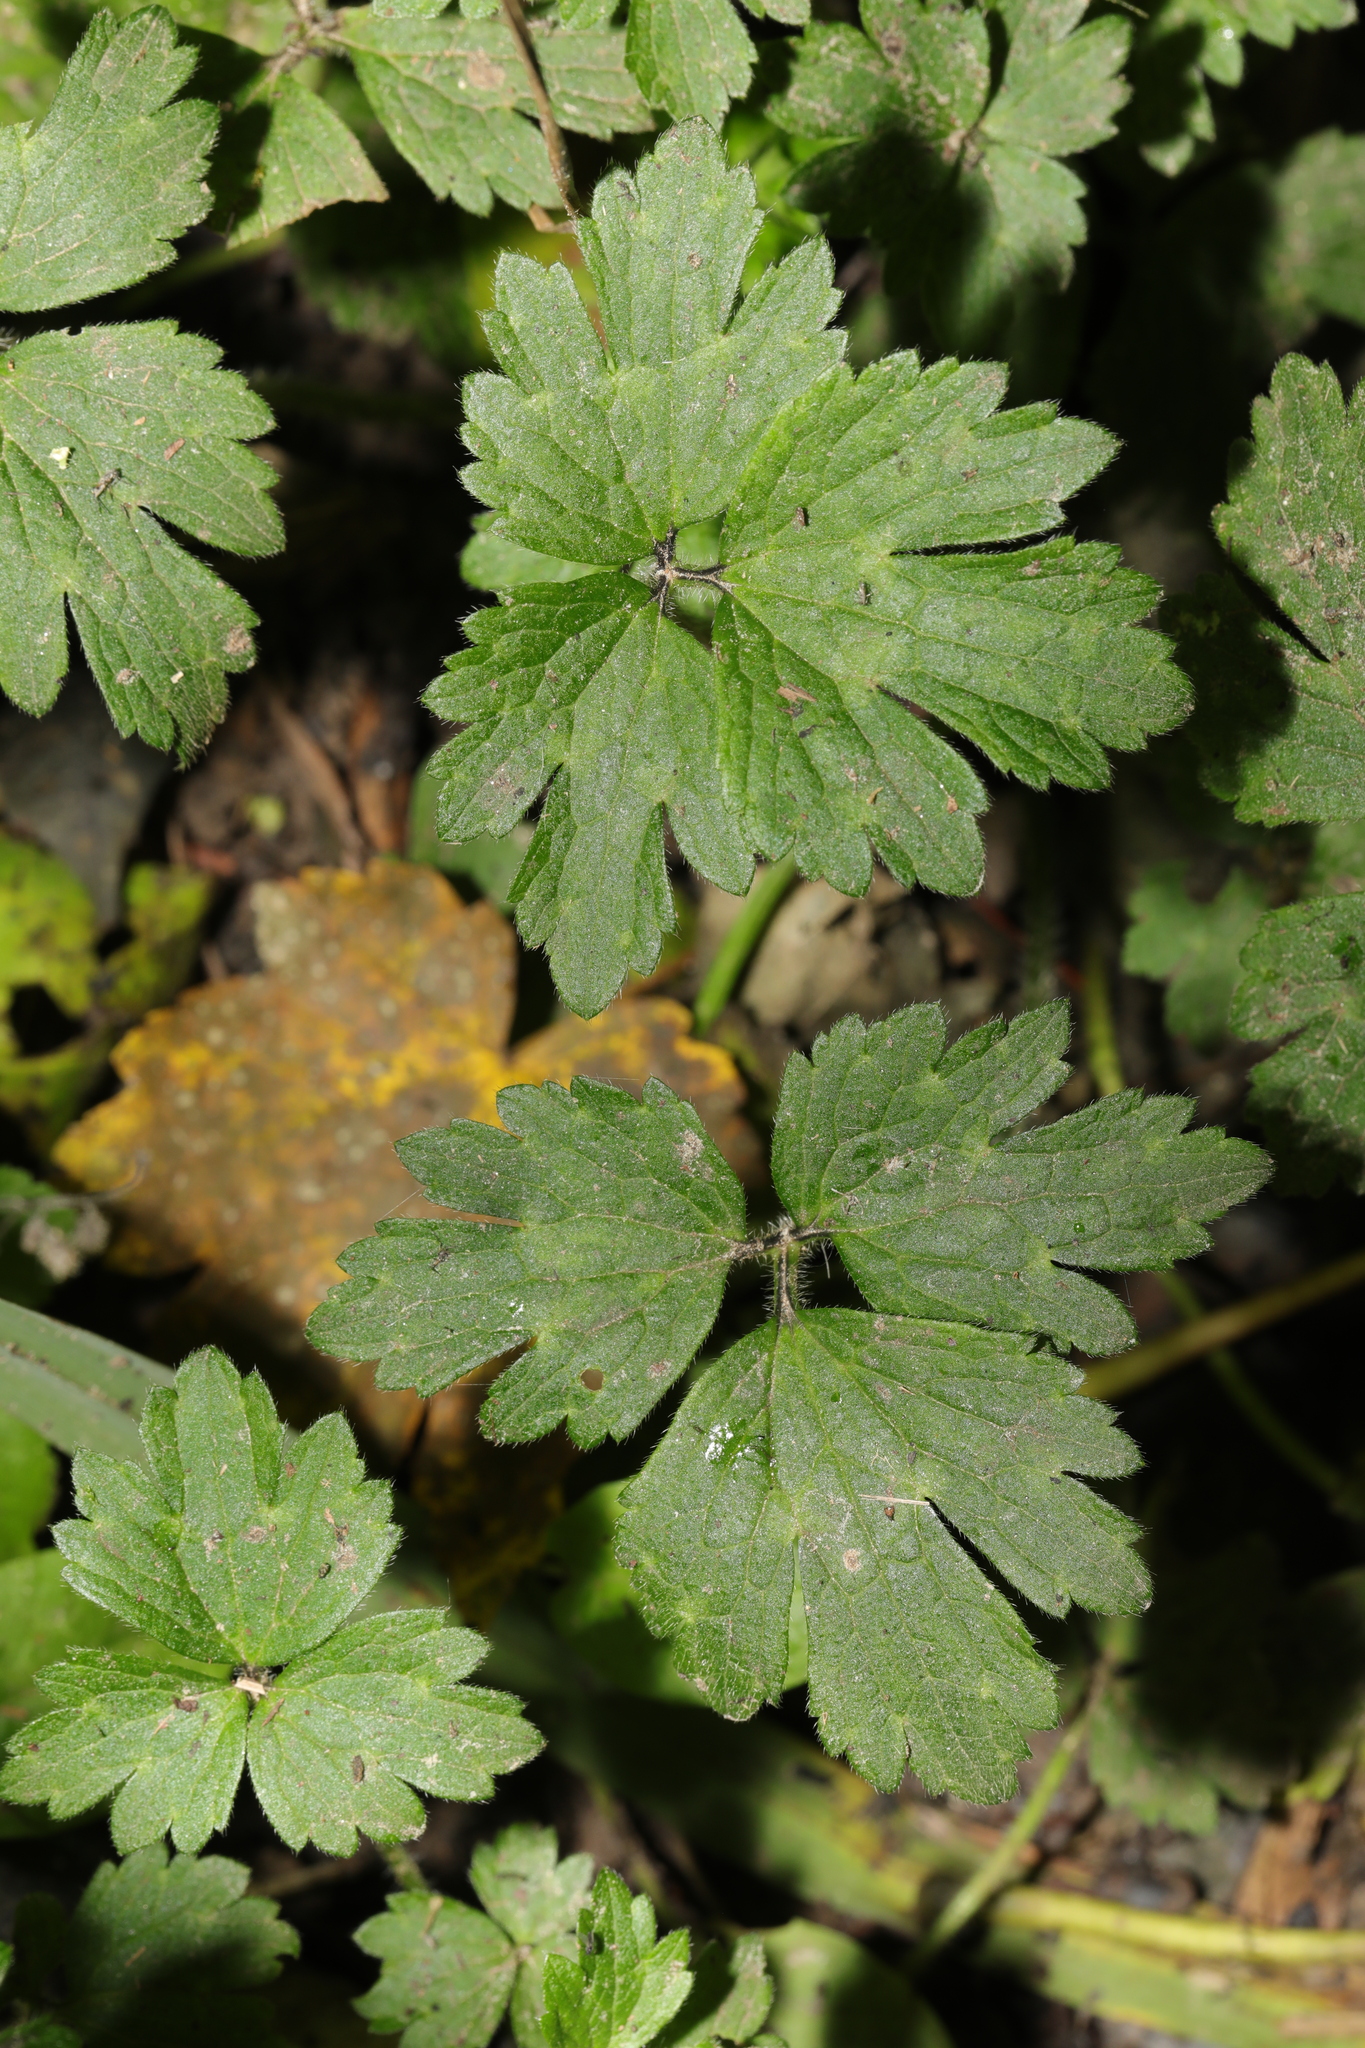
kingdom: Plantae
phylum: Tracheophyta
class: Magnoliopsida
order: Ranunculales
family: Ranunculaceae
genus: Ranunculus
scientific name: Ranunculus repens
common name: Creeping buttercup
